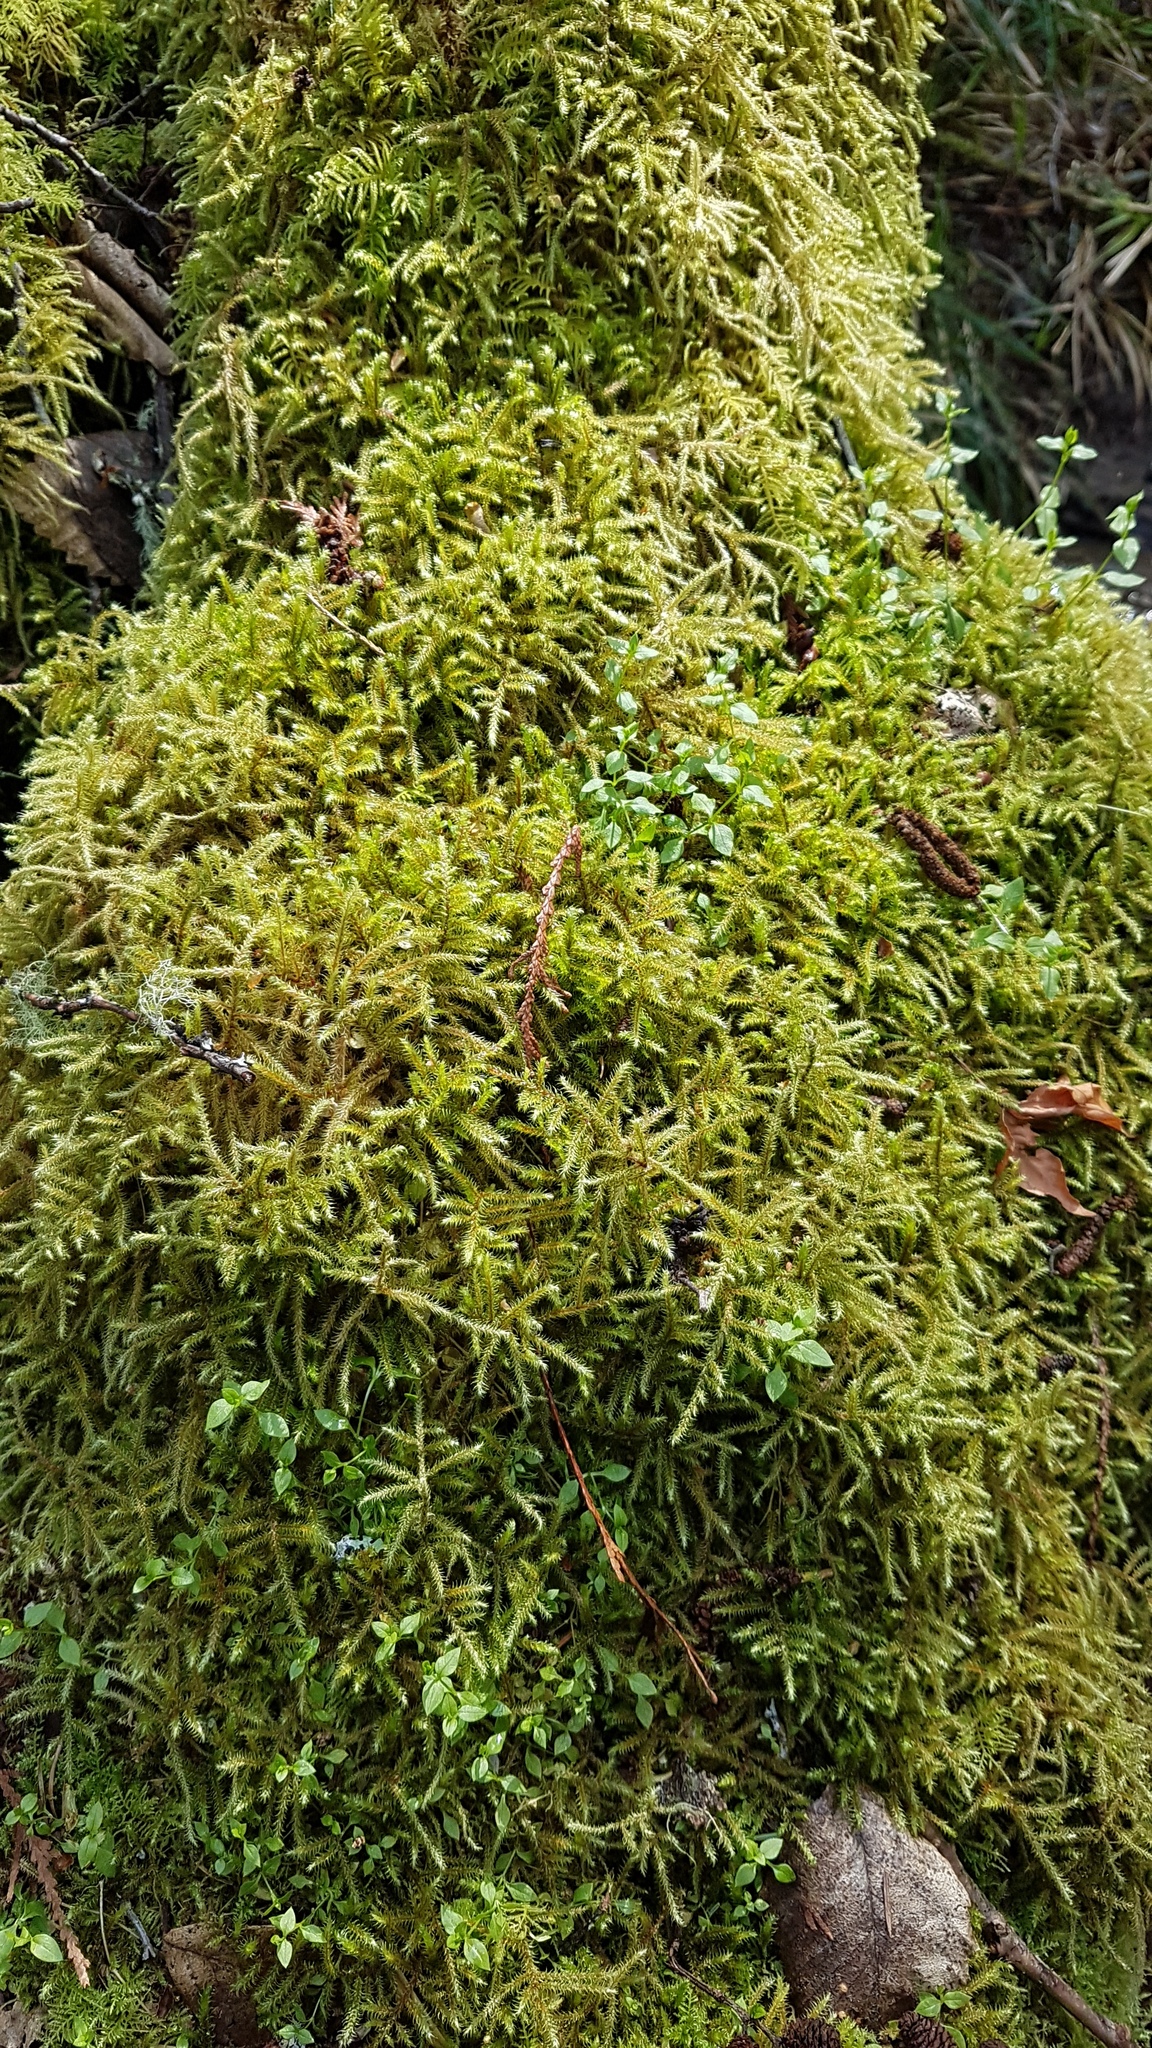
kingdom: Plantae
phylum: Bryophyta
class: Bryopsida
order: Hypnales
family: Hylocomiaceae
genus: Rhytidiadelphus
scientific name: Rhytidiadelphus loreus
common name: Lanky moss
